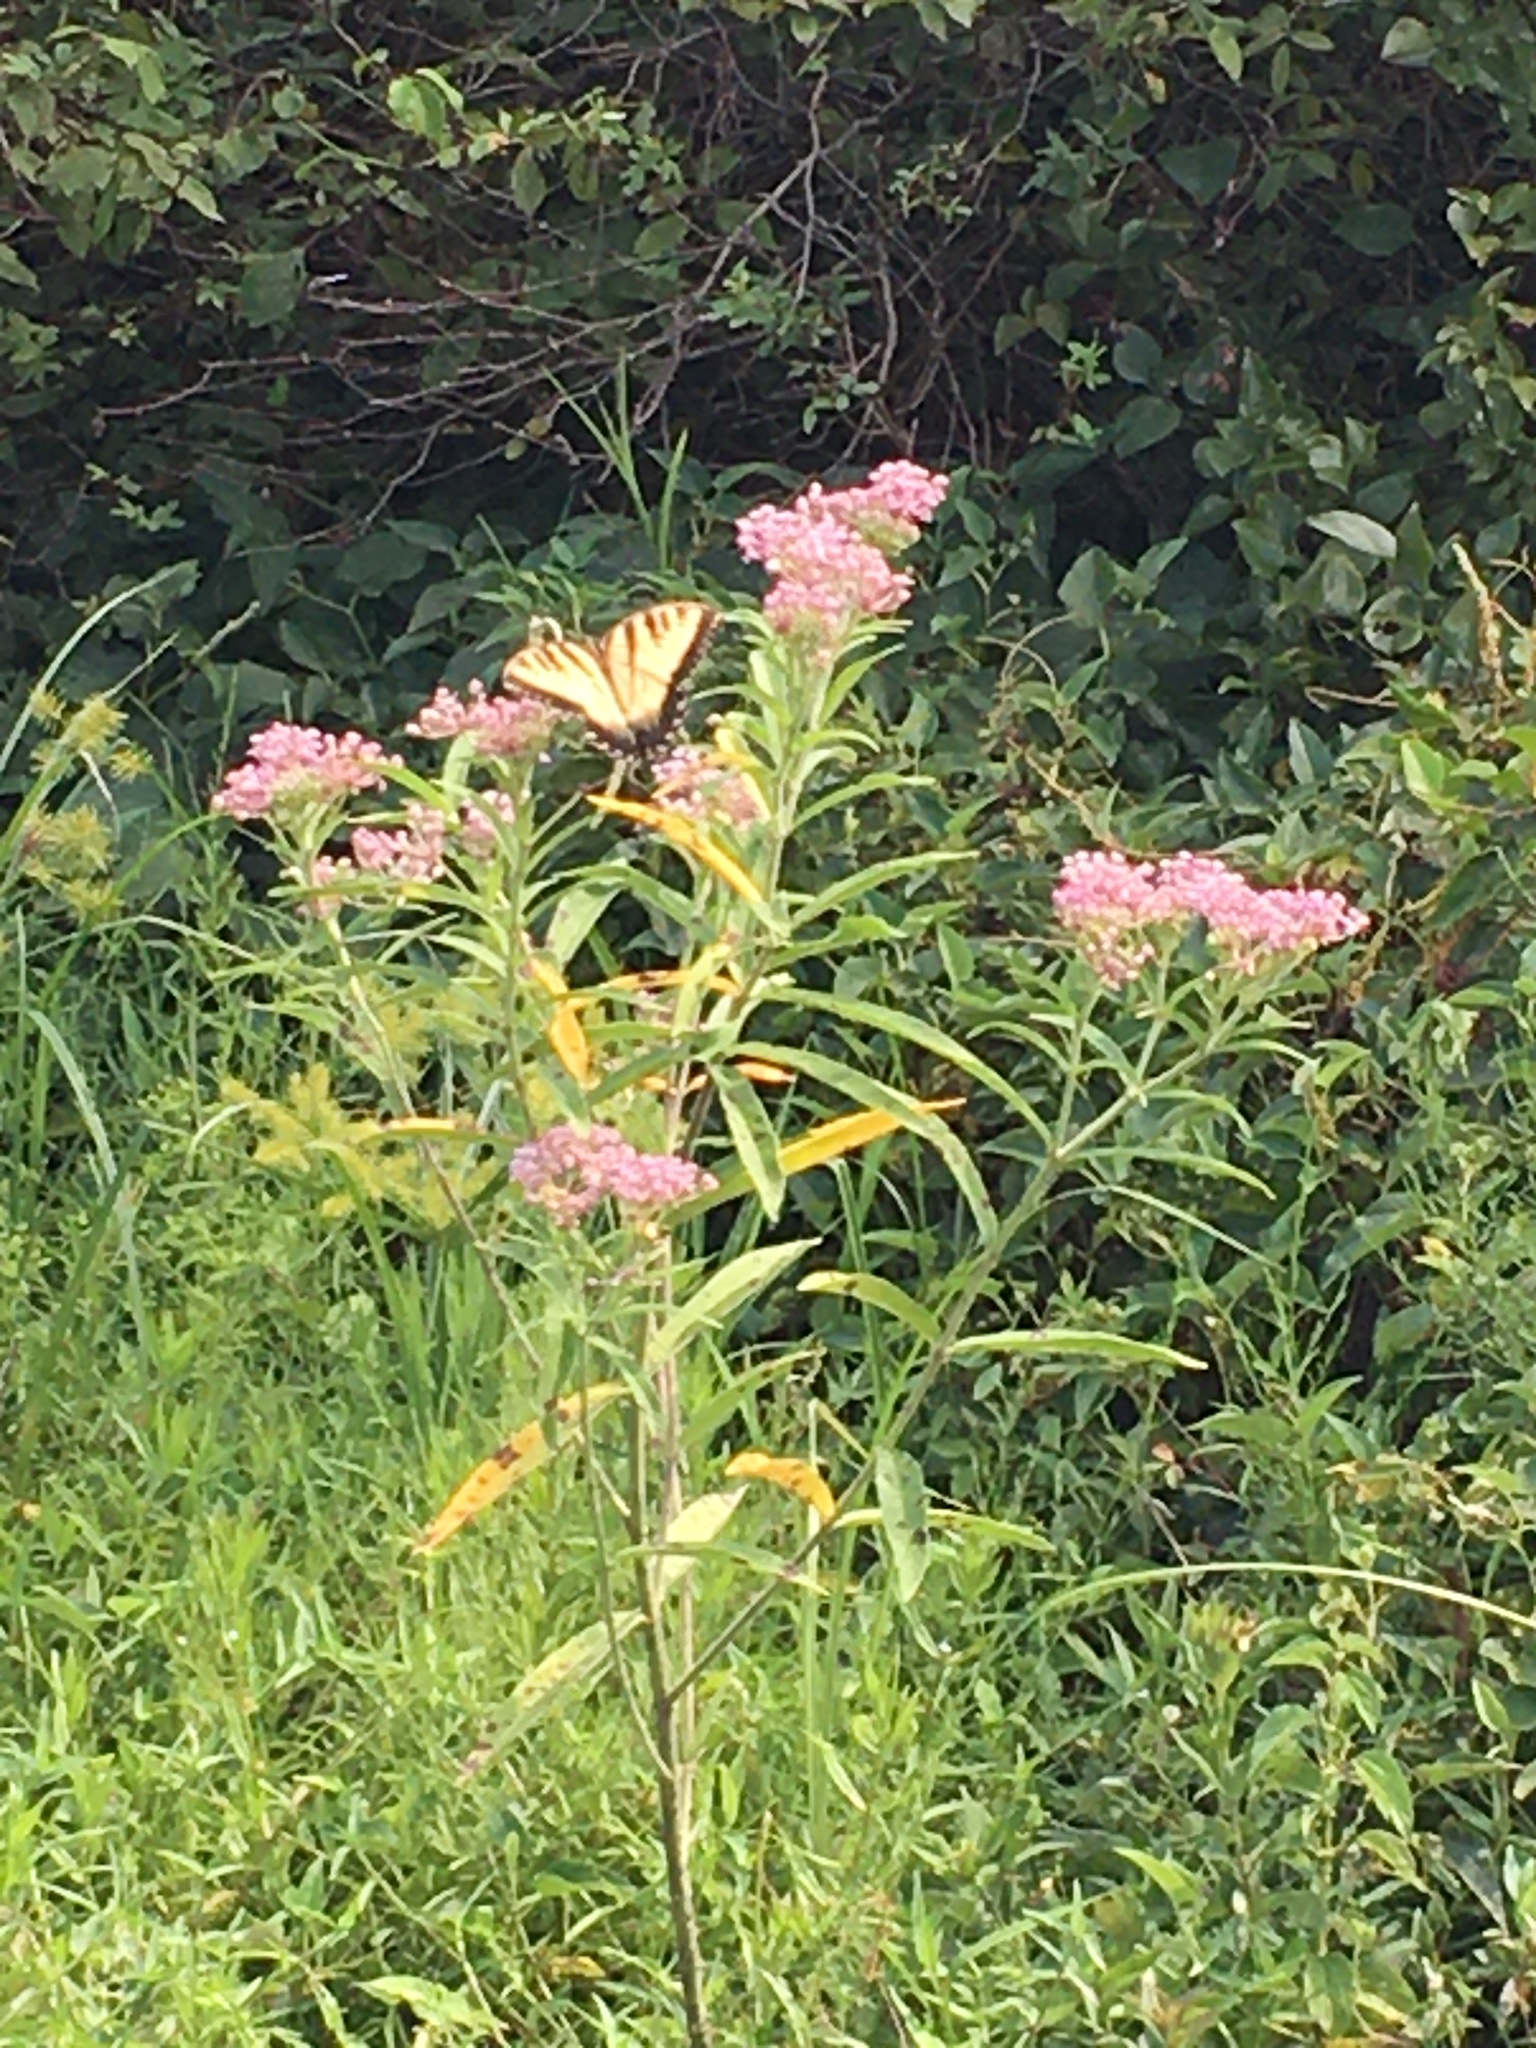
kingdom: Plantae
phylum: Tracheophyta
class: Magnoliopsida
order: Gentianales
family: Apocynaceae
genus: Asclepias
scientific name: Asclepias incarnata
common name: Swamp milkweed
